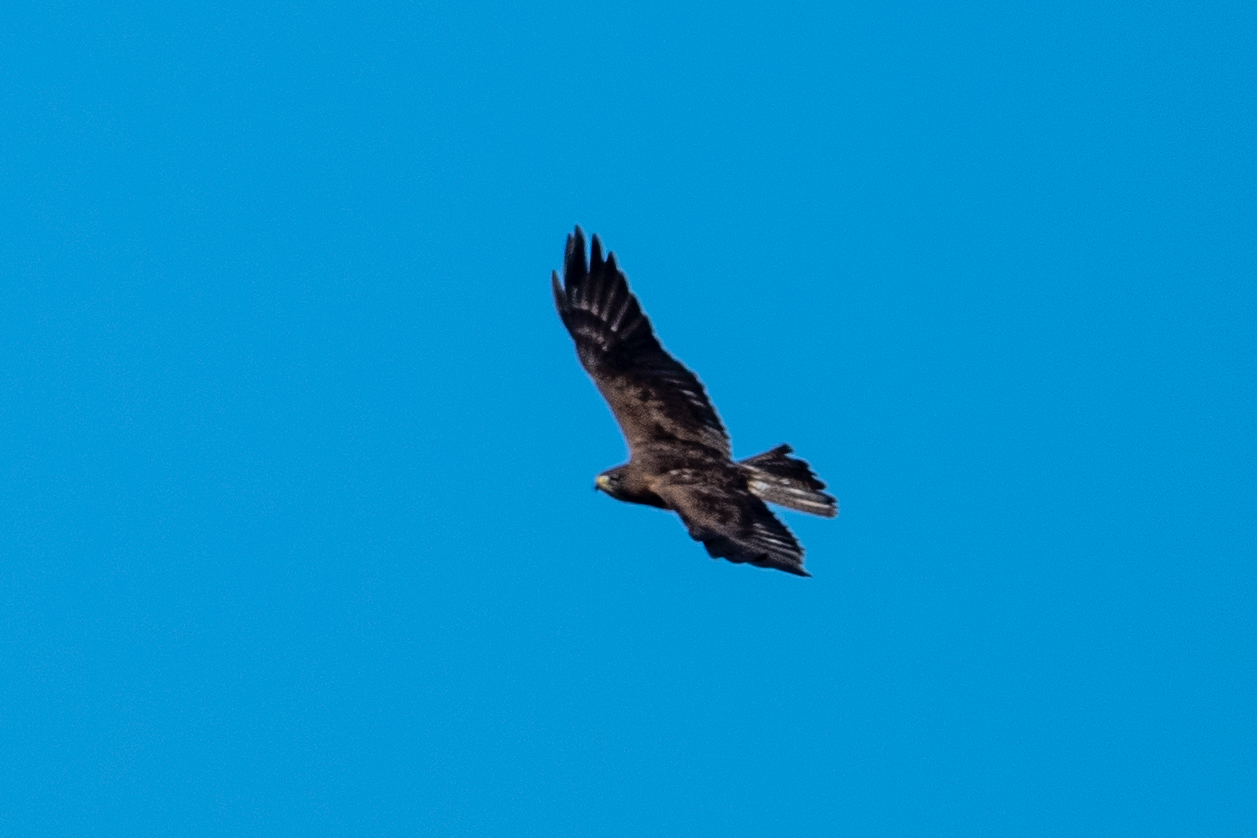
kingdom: Animalia
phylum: Chordata
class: Aves
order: Accipitriformes
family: Accipitridae
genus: Buteo
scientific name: Buteo swainsoni
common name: Swainson's hawk
